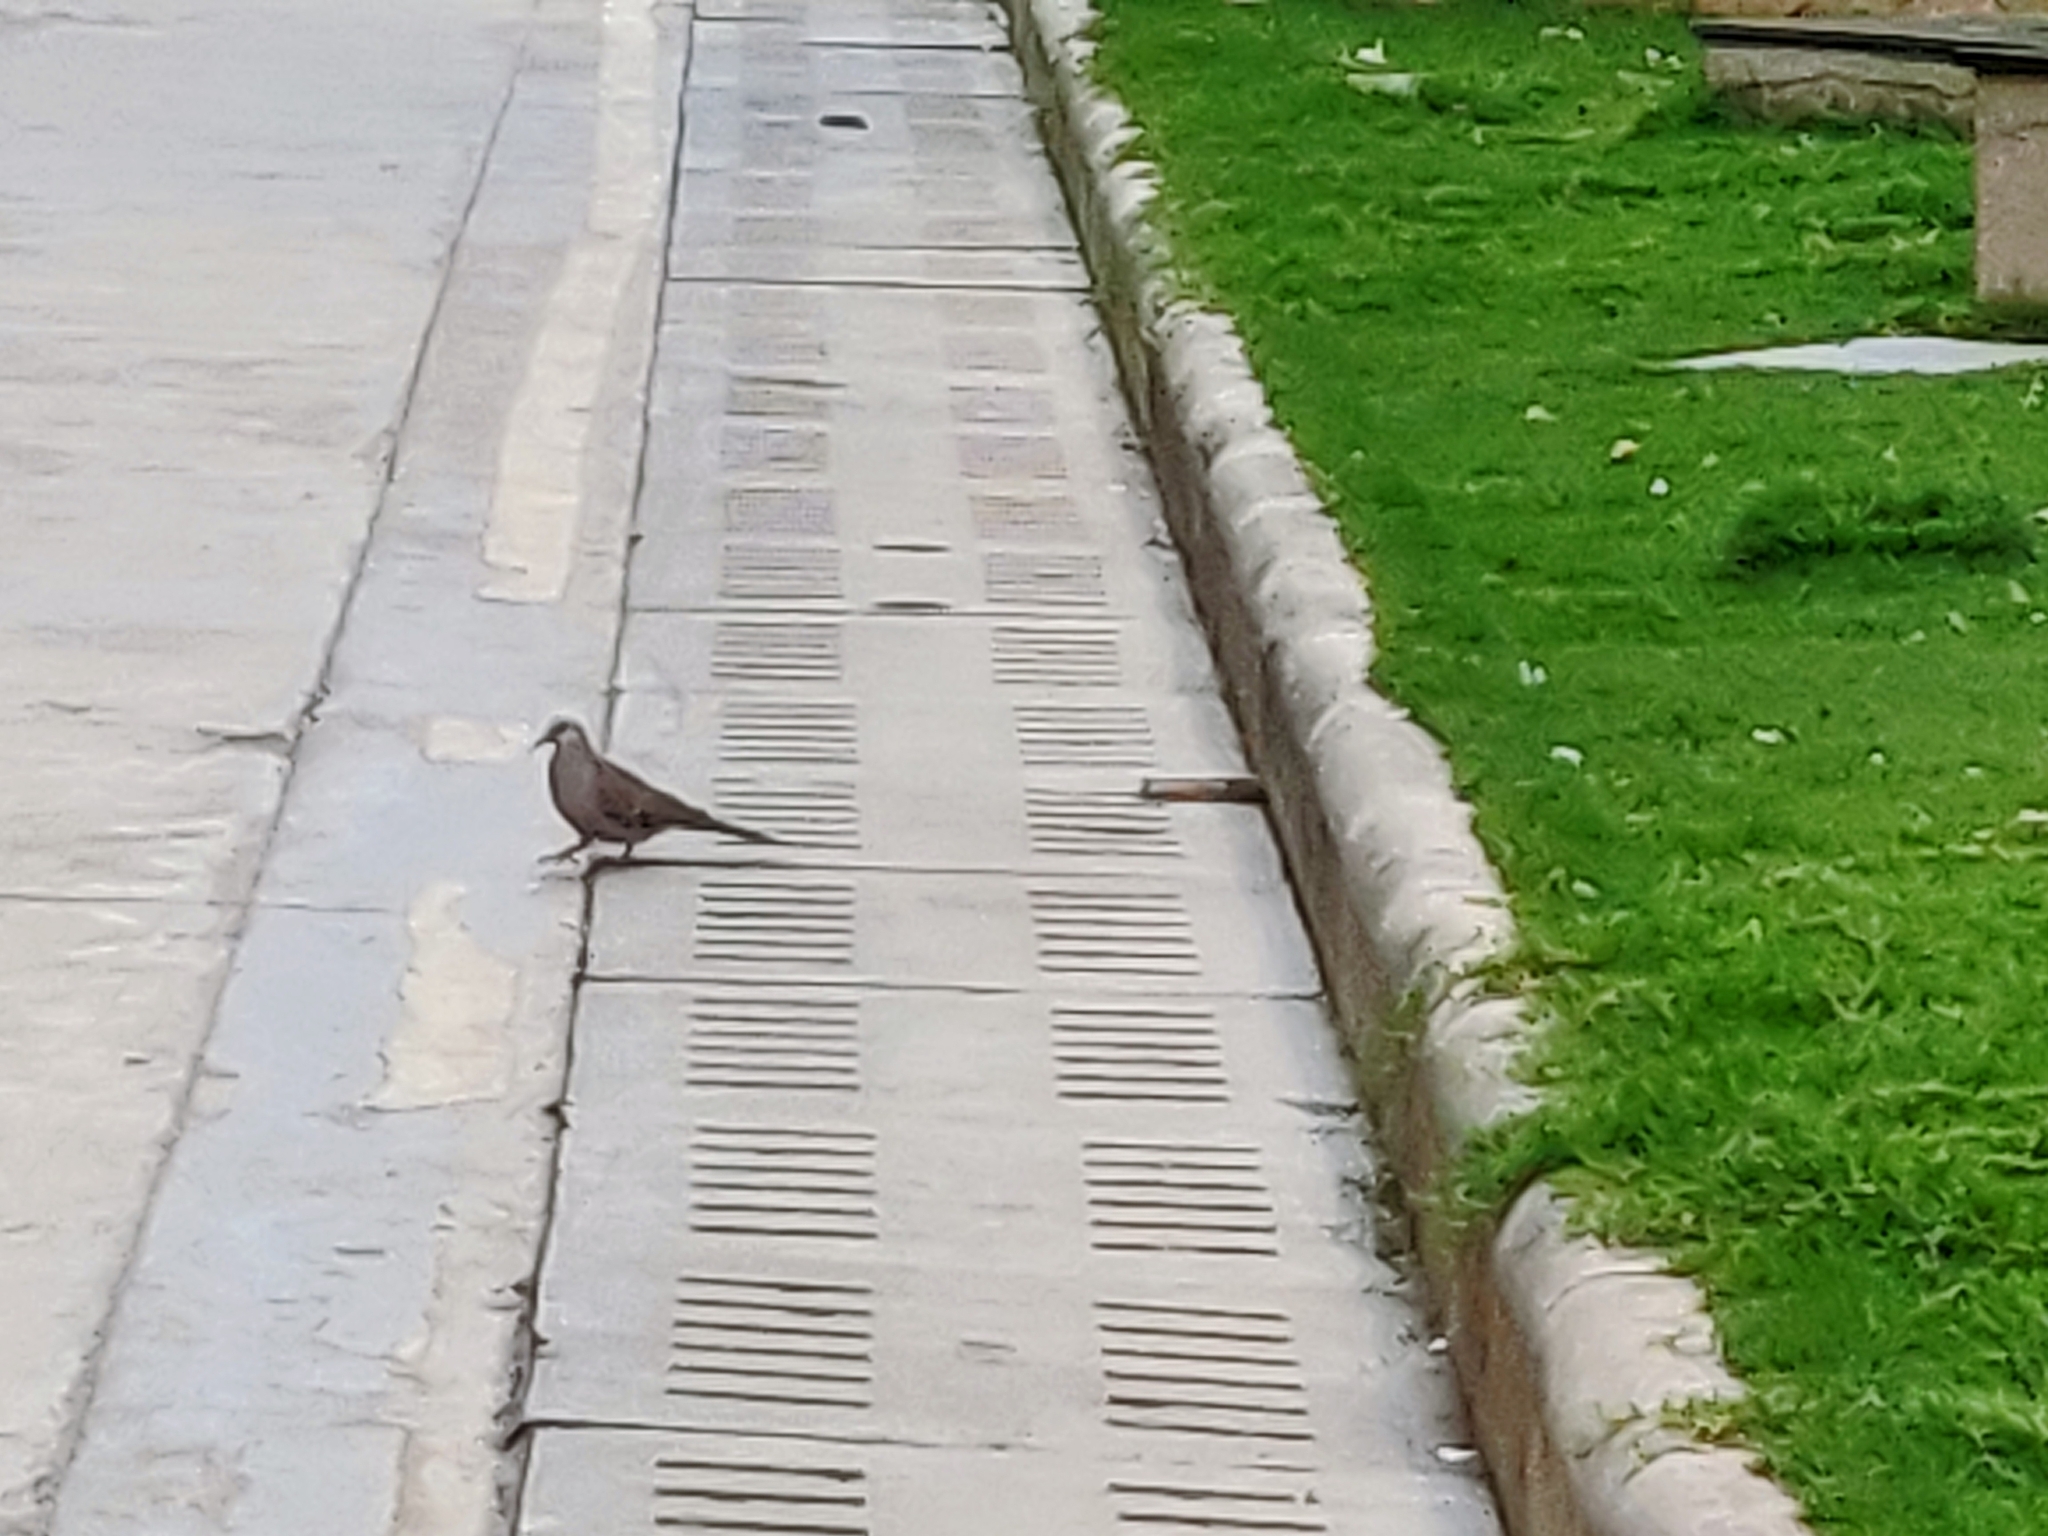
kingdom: Animalia
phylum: Chordata
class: Aves
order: Columbiformes
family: Columbidae
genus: Spilopelia
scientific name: Spilopelia chinensis
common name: Spotted dove
